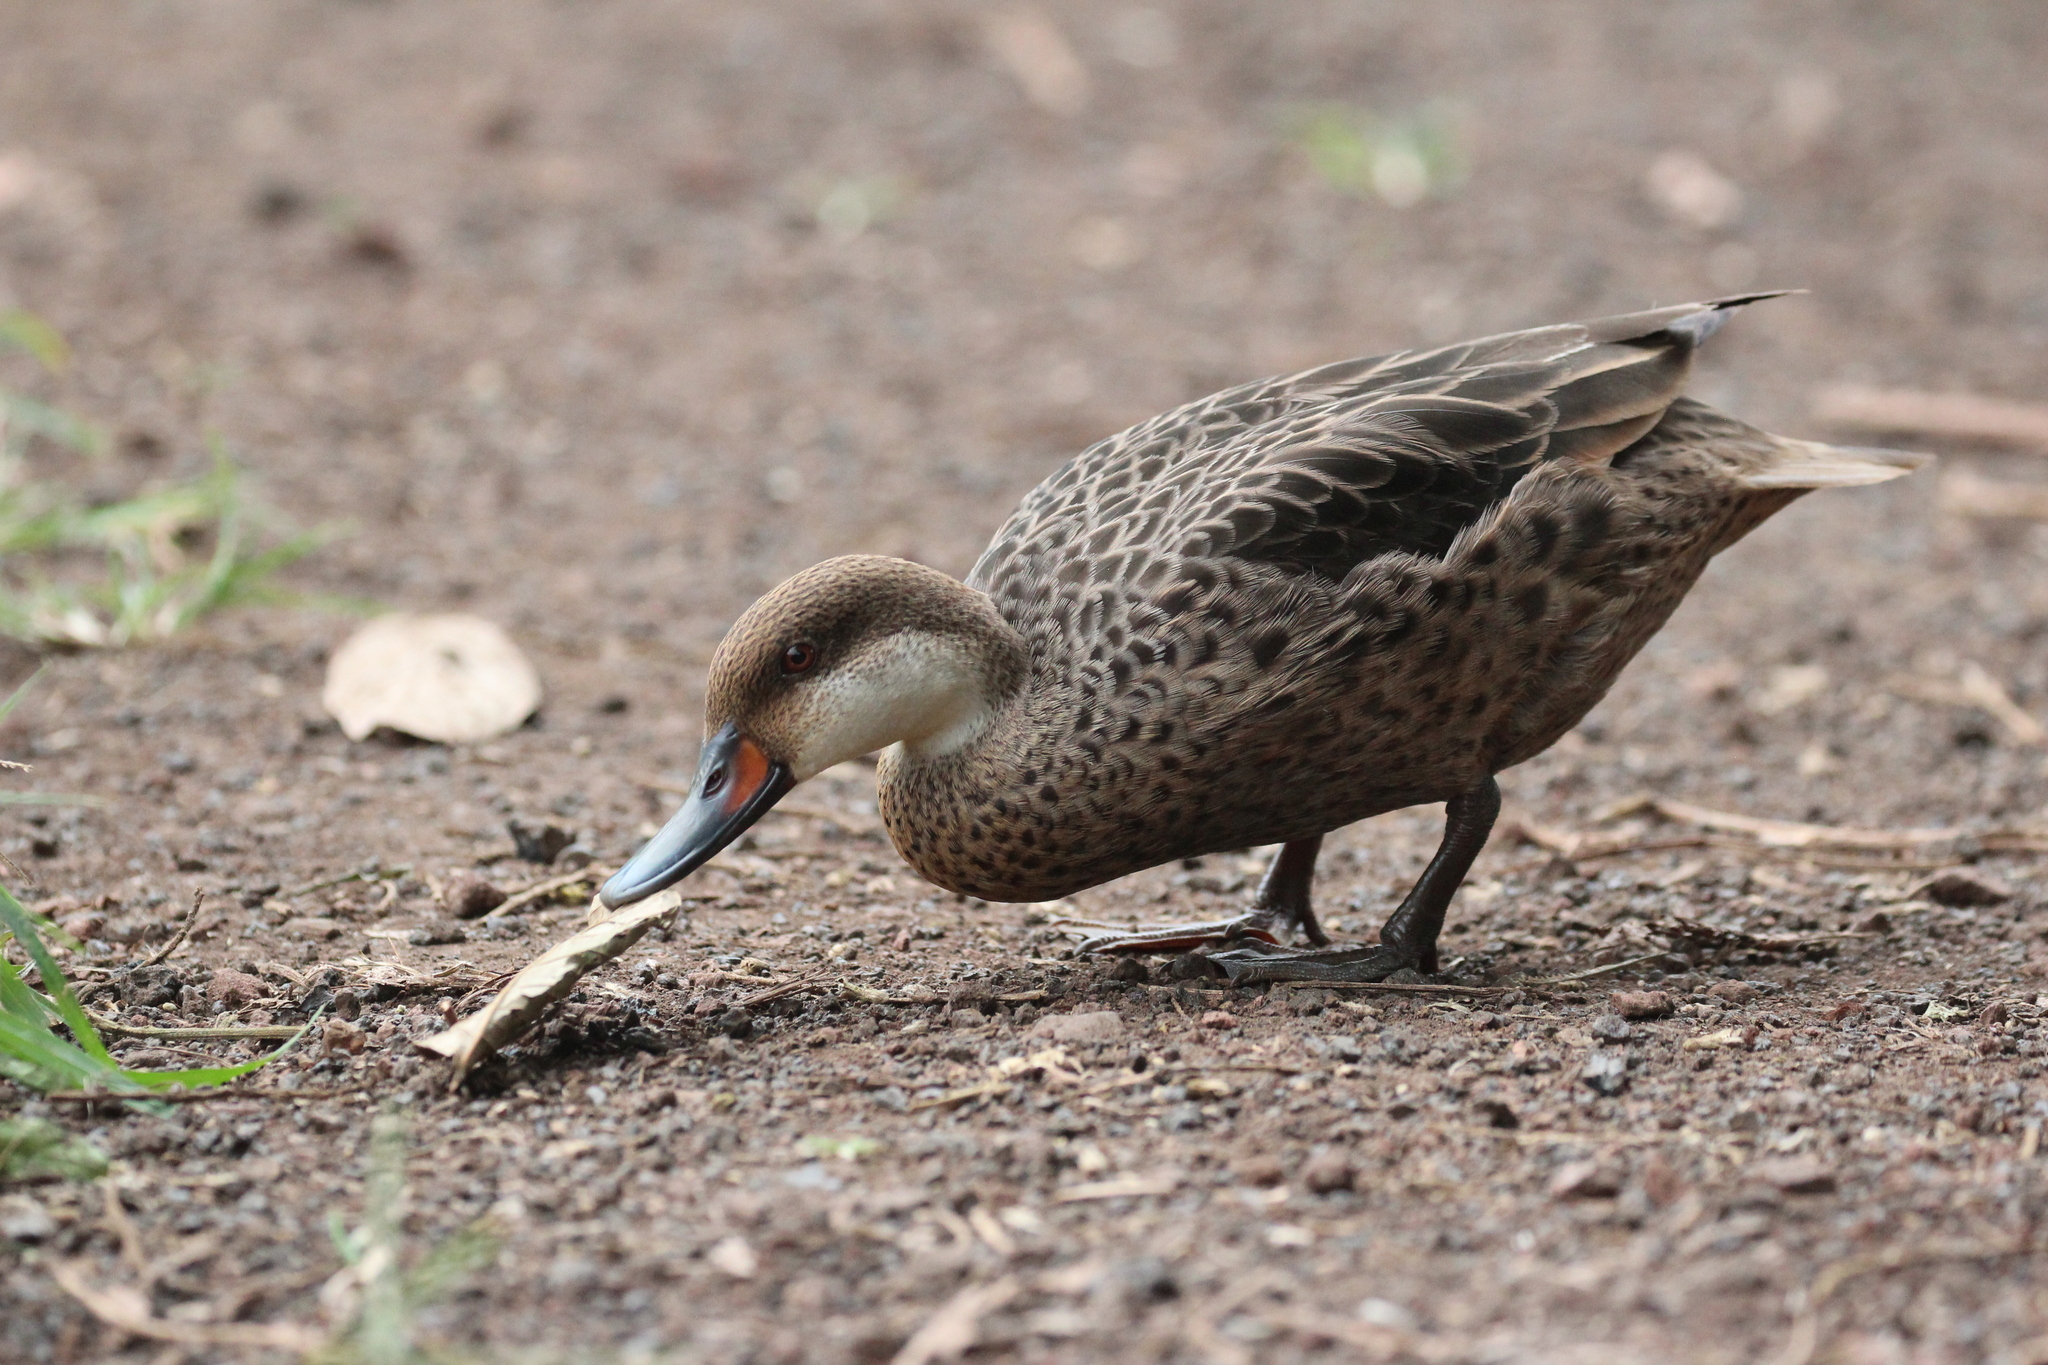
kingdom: Animalia
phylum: Chordata
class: Aves
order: Anseriformes
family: Anatidae
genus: Anas
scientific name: Anas bahamensis
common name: White-cheeked pintail
